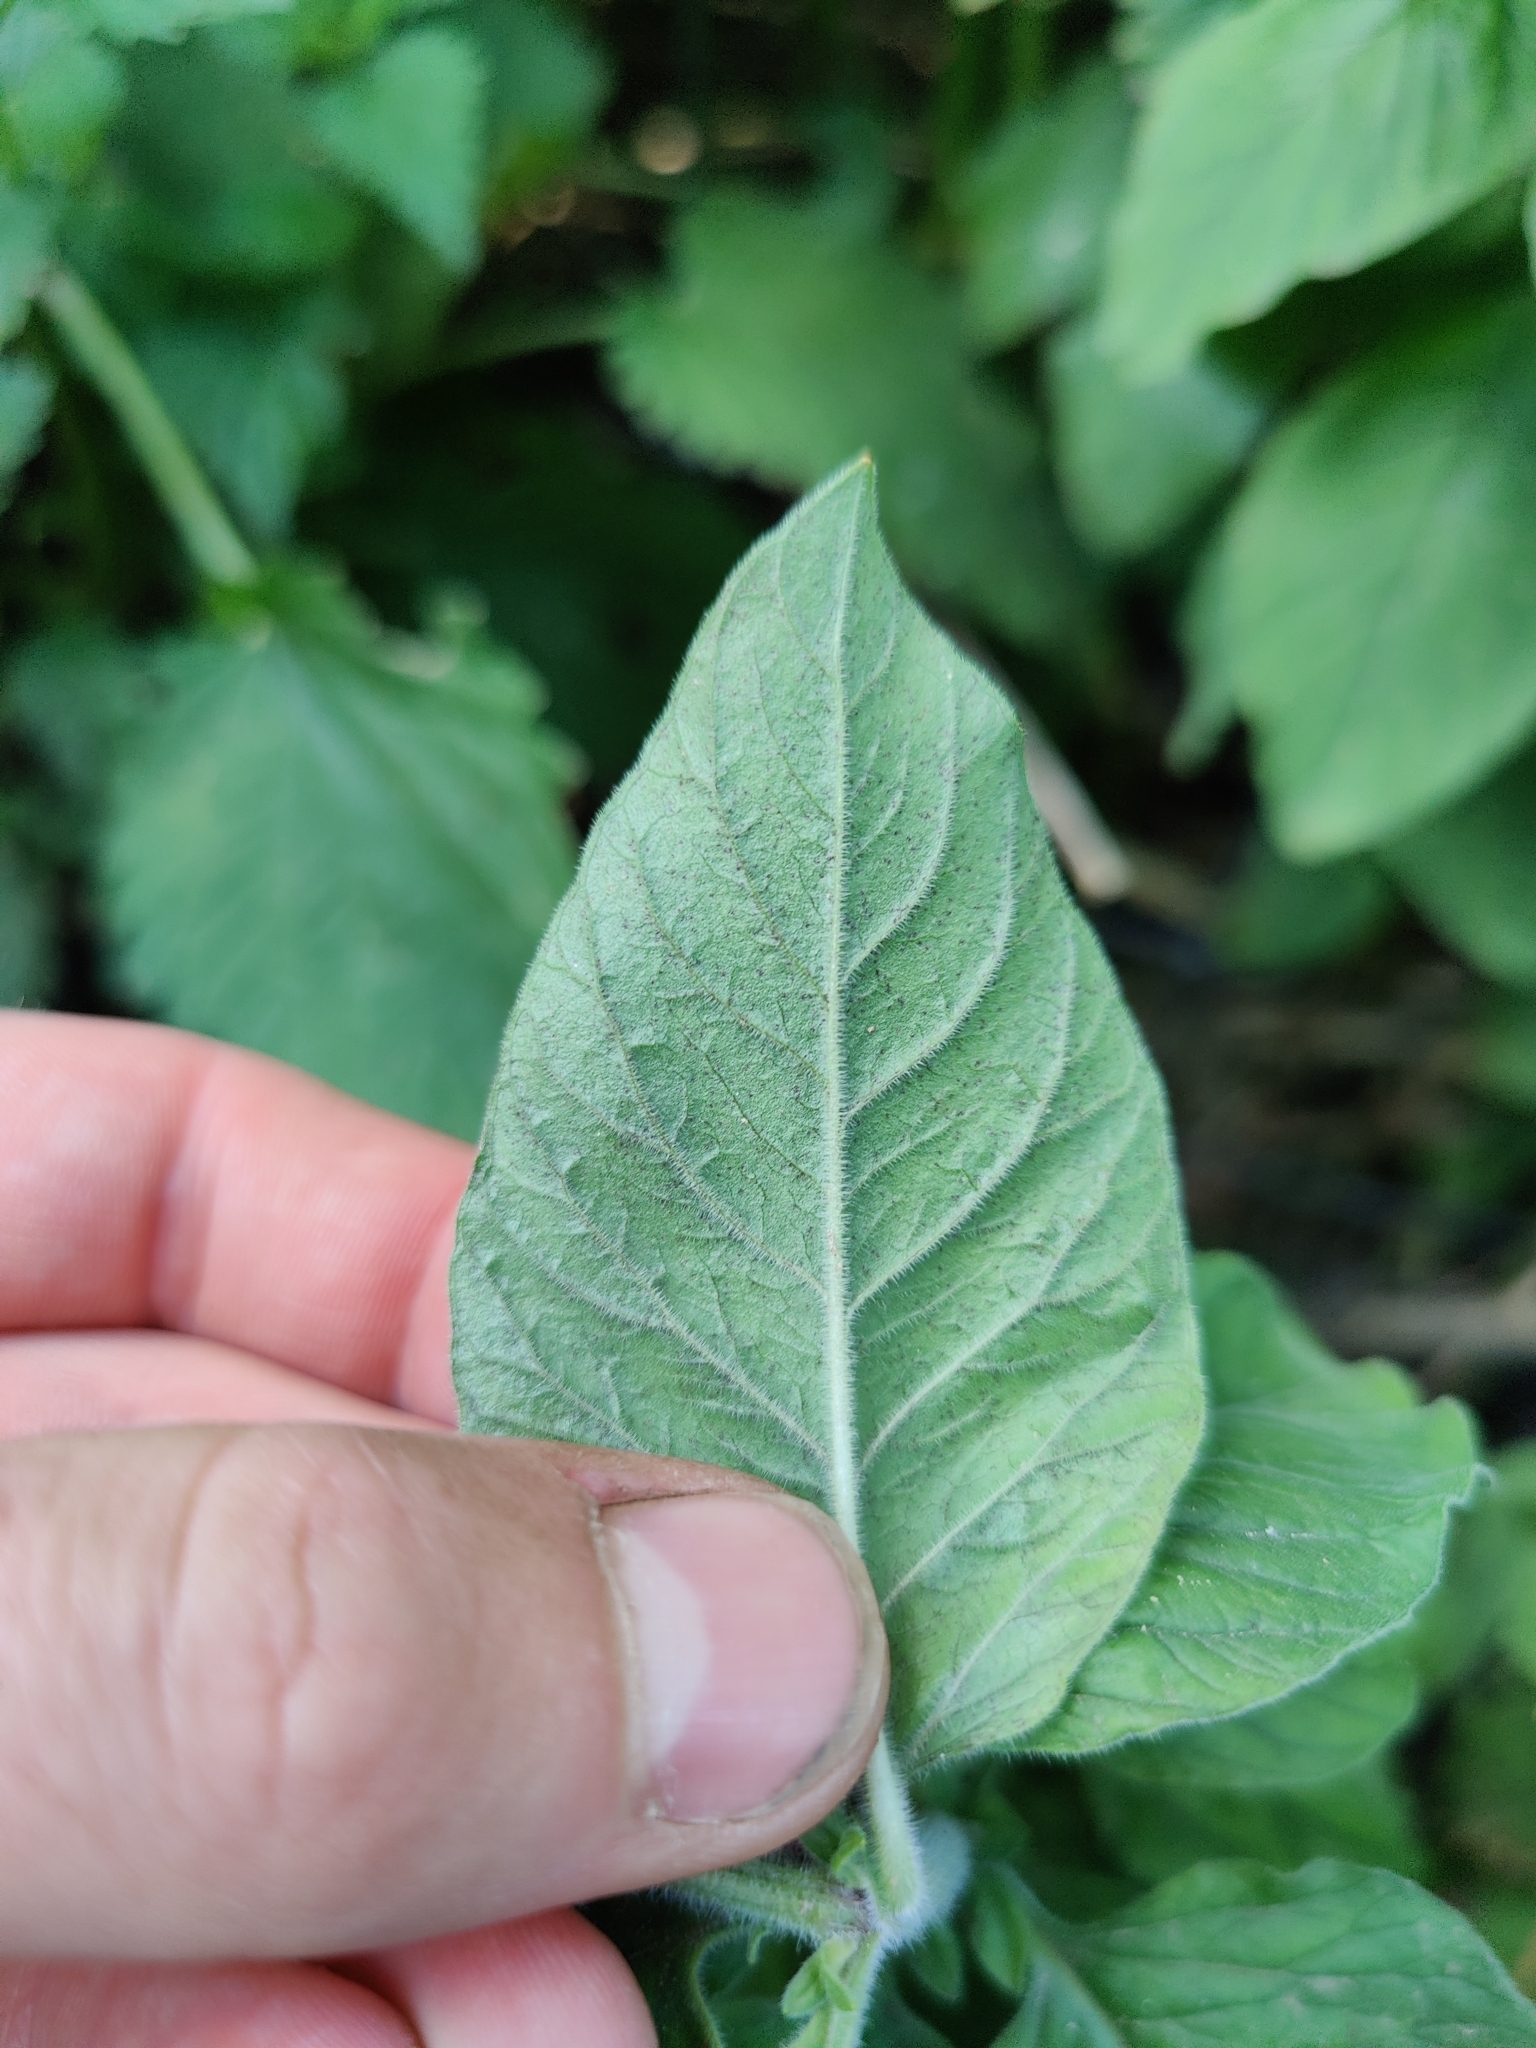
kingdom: Plantae
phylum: Tracheophyta
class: Magnoliopsida
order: Ericales
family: Primulaceae
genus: Lysimachia
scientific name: Lysimachia punctata
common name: Dotted loosestrife
